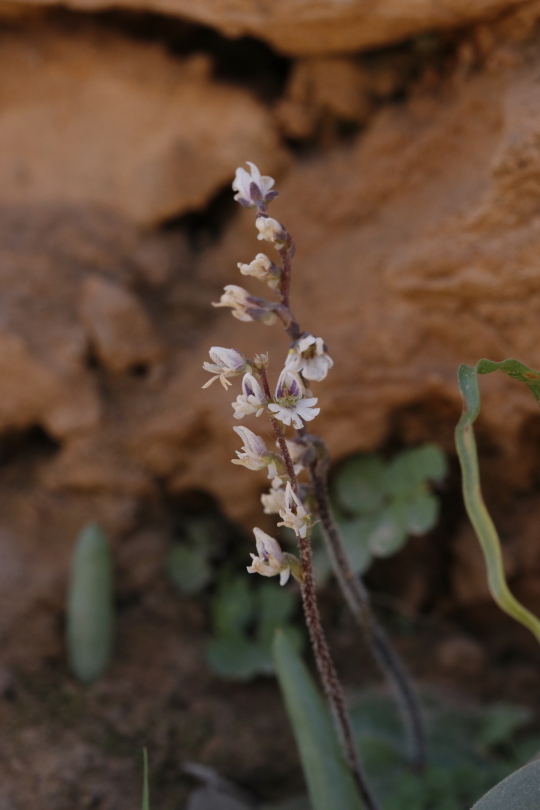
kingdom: Plantae
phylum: Tracheophyta
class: Liliopsida
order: Asparagales
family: Orchidaceae
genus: Holothrix
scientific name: Holothrix aspera
